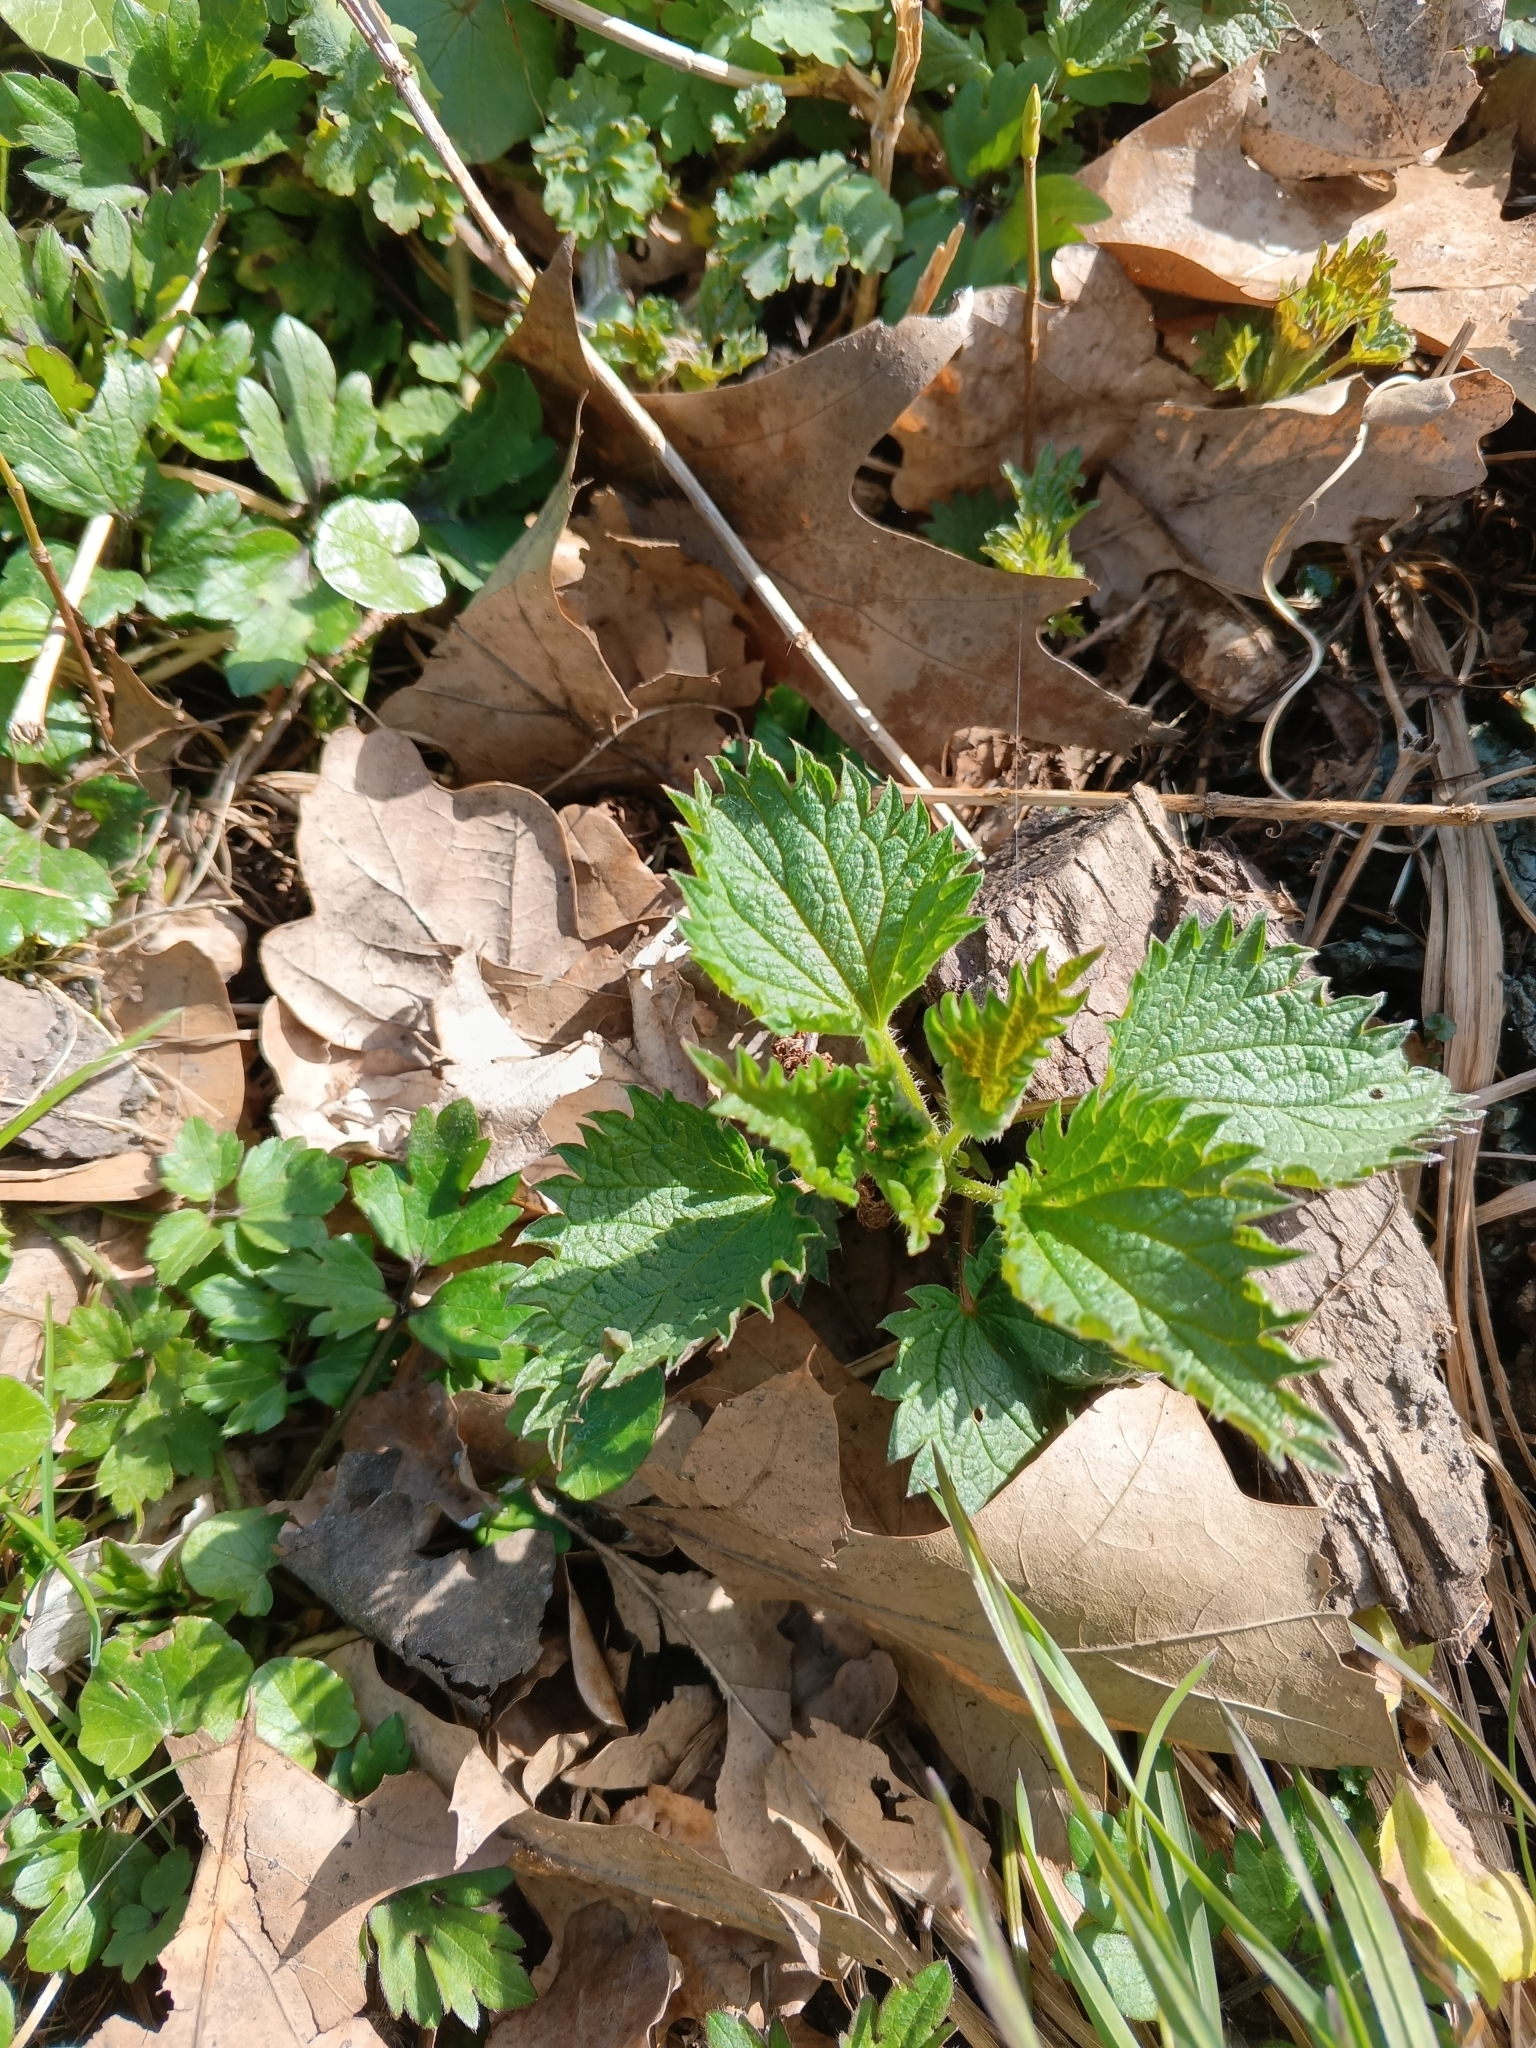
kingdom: Plantae
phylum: Tracheophyta
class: Magnoliopsida
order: Rosales
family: Urticaceae
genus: Urtica
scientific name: Urtica dioica
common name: Common nettle
